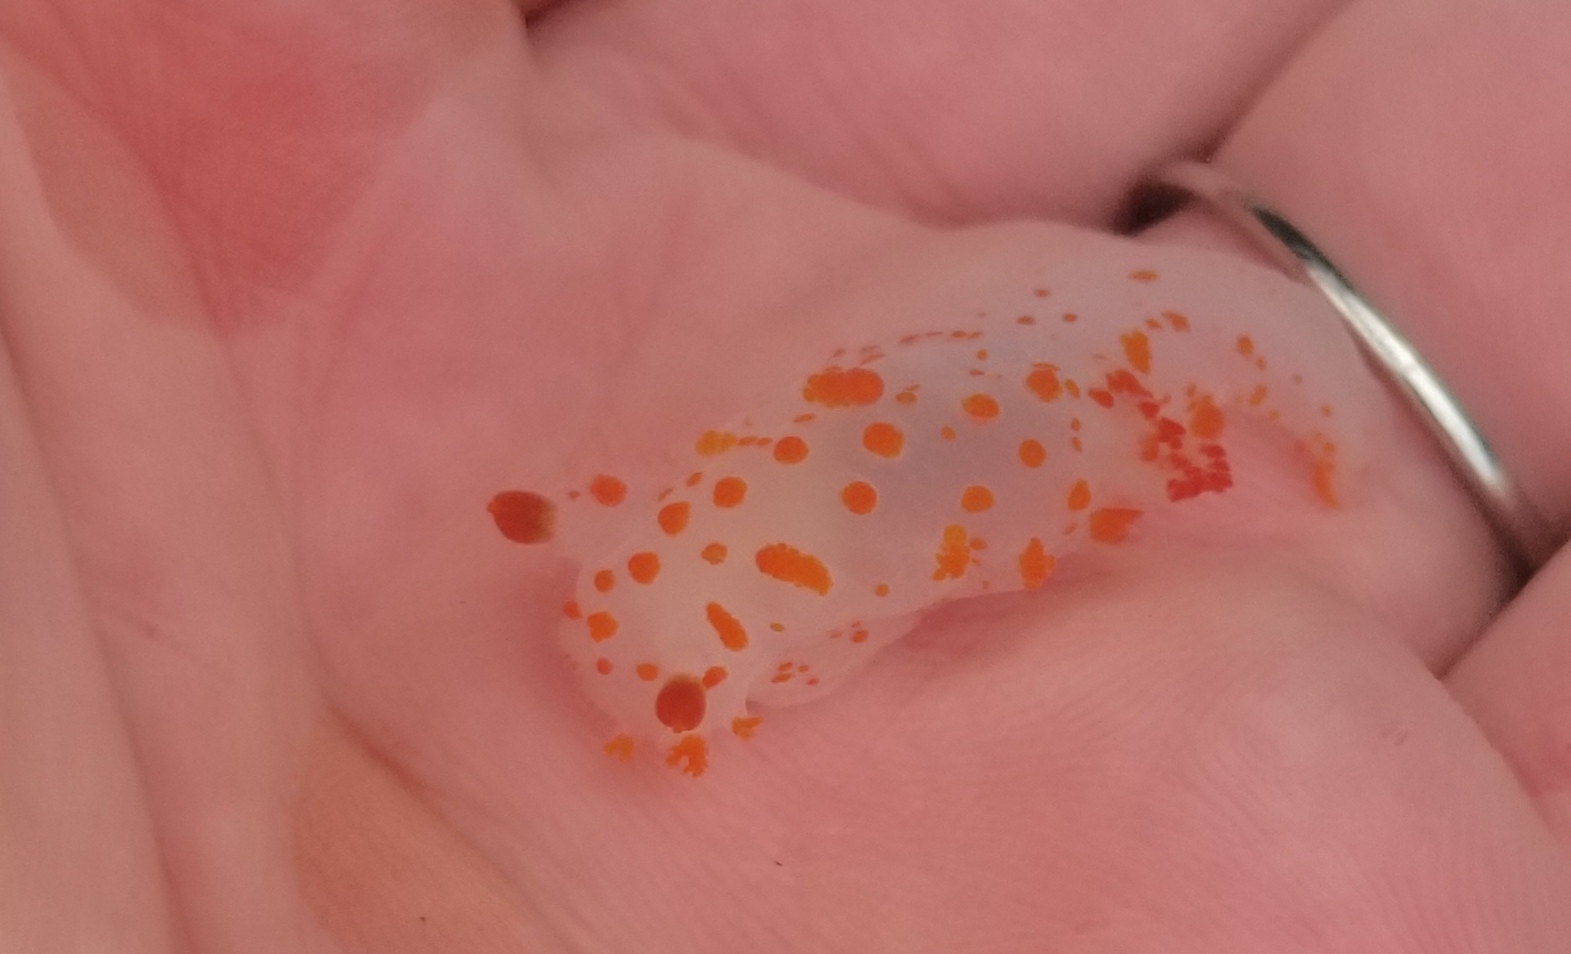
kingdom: Animalia
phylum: Mollusca
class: Gastropoda
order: Nudibranchia
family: Polyceridae
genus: Triopha
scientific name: Triopha catalinae
